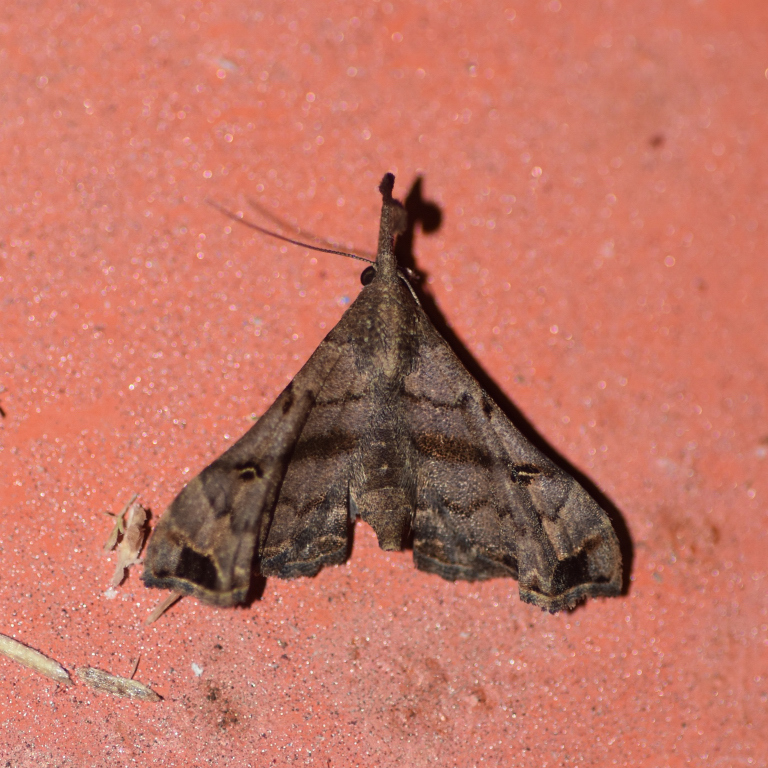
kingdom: Animalia
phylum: Arthropoda
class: Insecta
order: Lepidoptera
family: Erebidae
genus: Palthis
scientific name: Palthis asopialis
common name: Faint-spotted palthis moth
